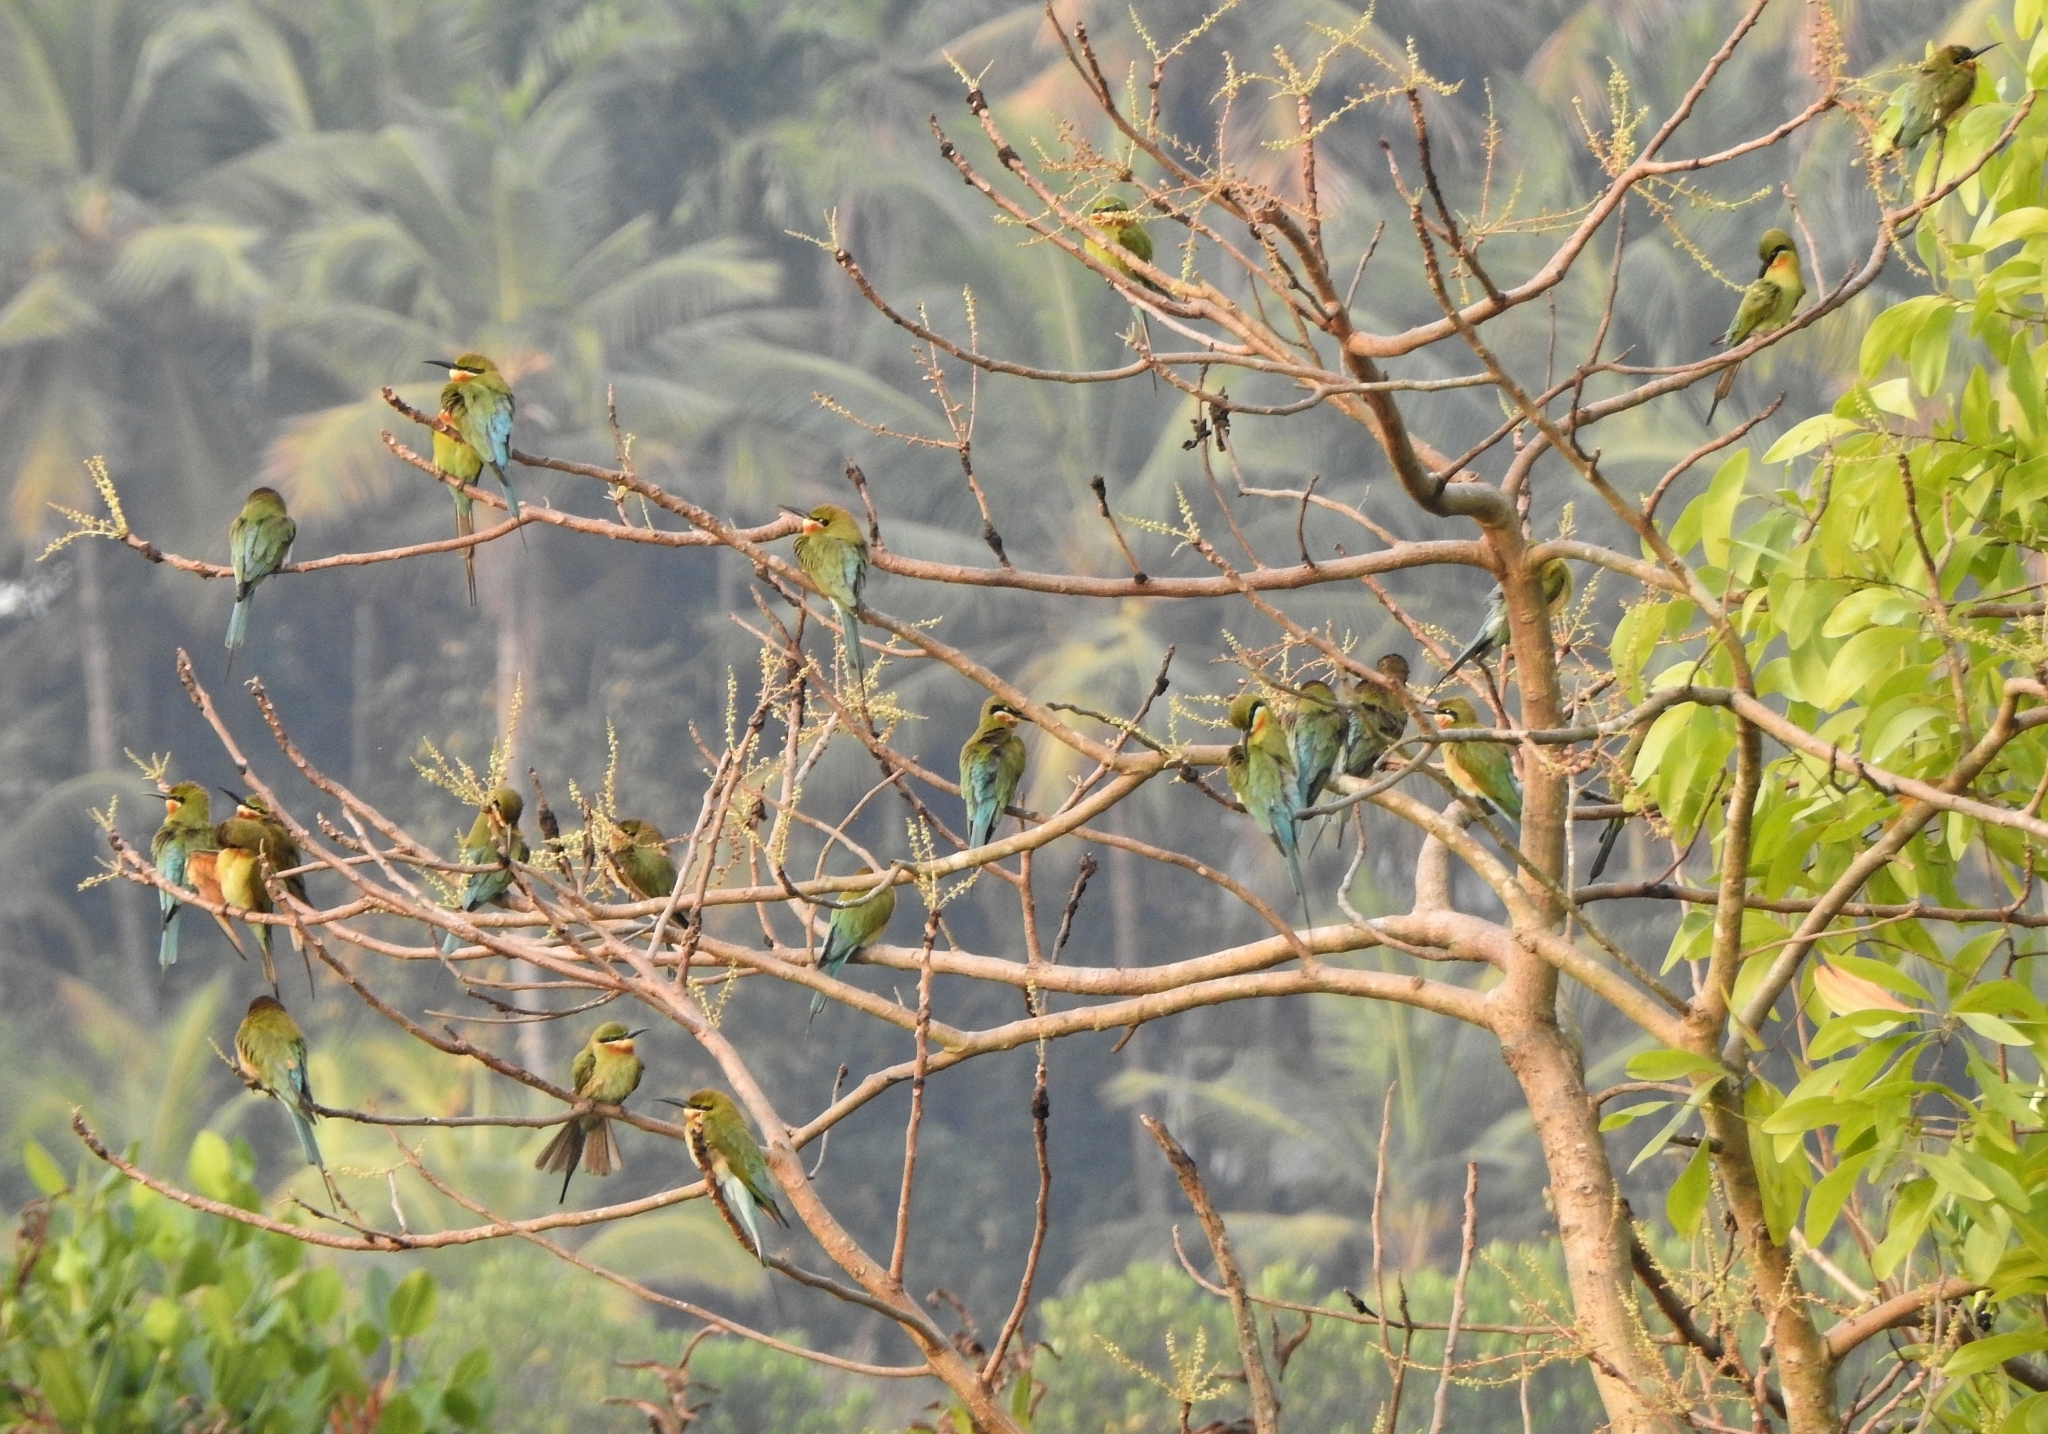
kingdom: Animalia
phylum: Chordata
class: Aves
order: Coraciiformes
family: Meropidae
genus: Merops
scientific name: Merops philippinus
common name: Blue-tailed bee-eater
